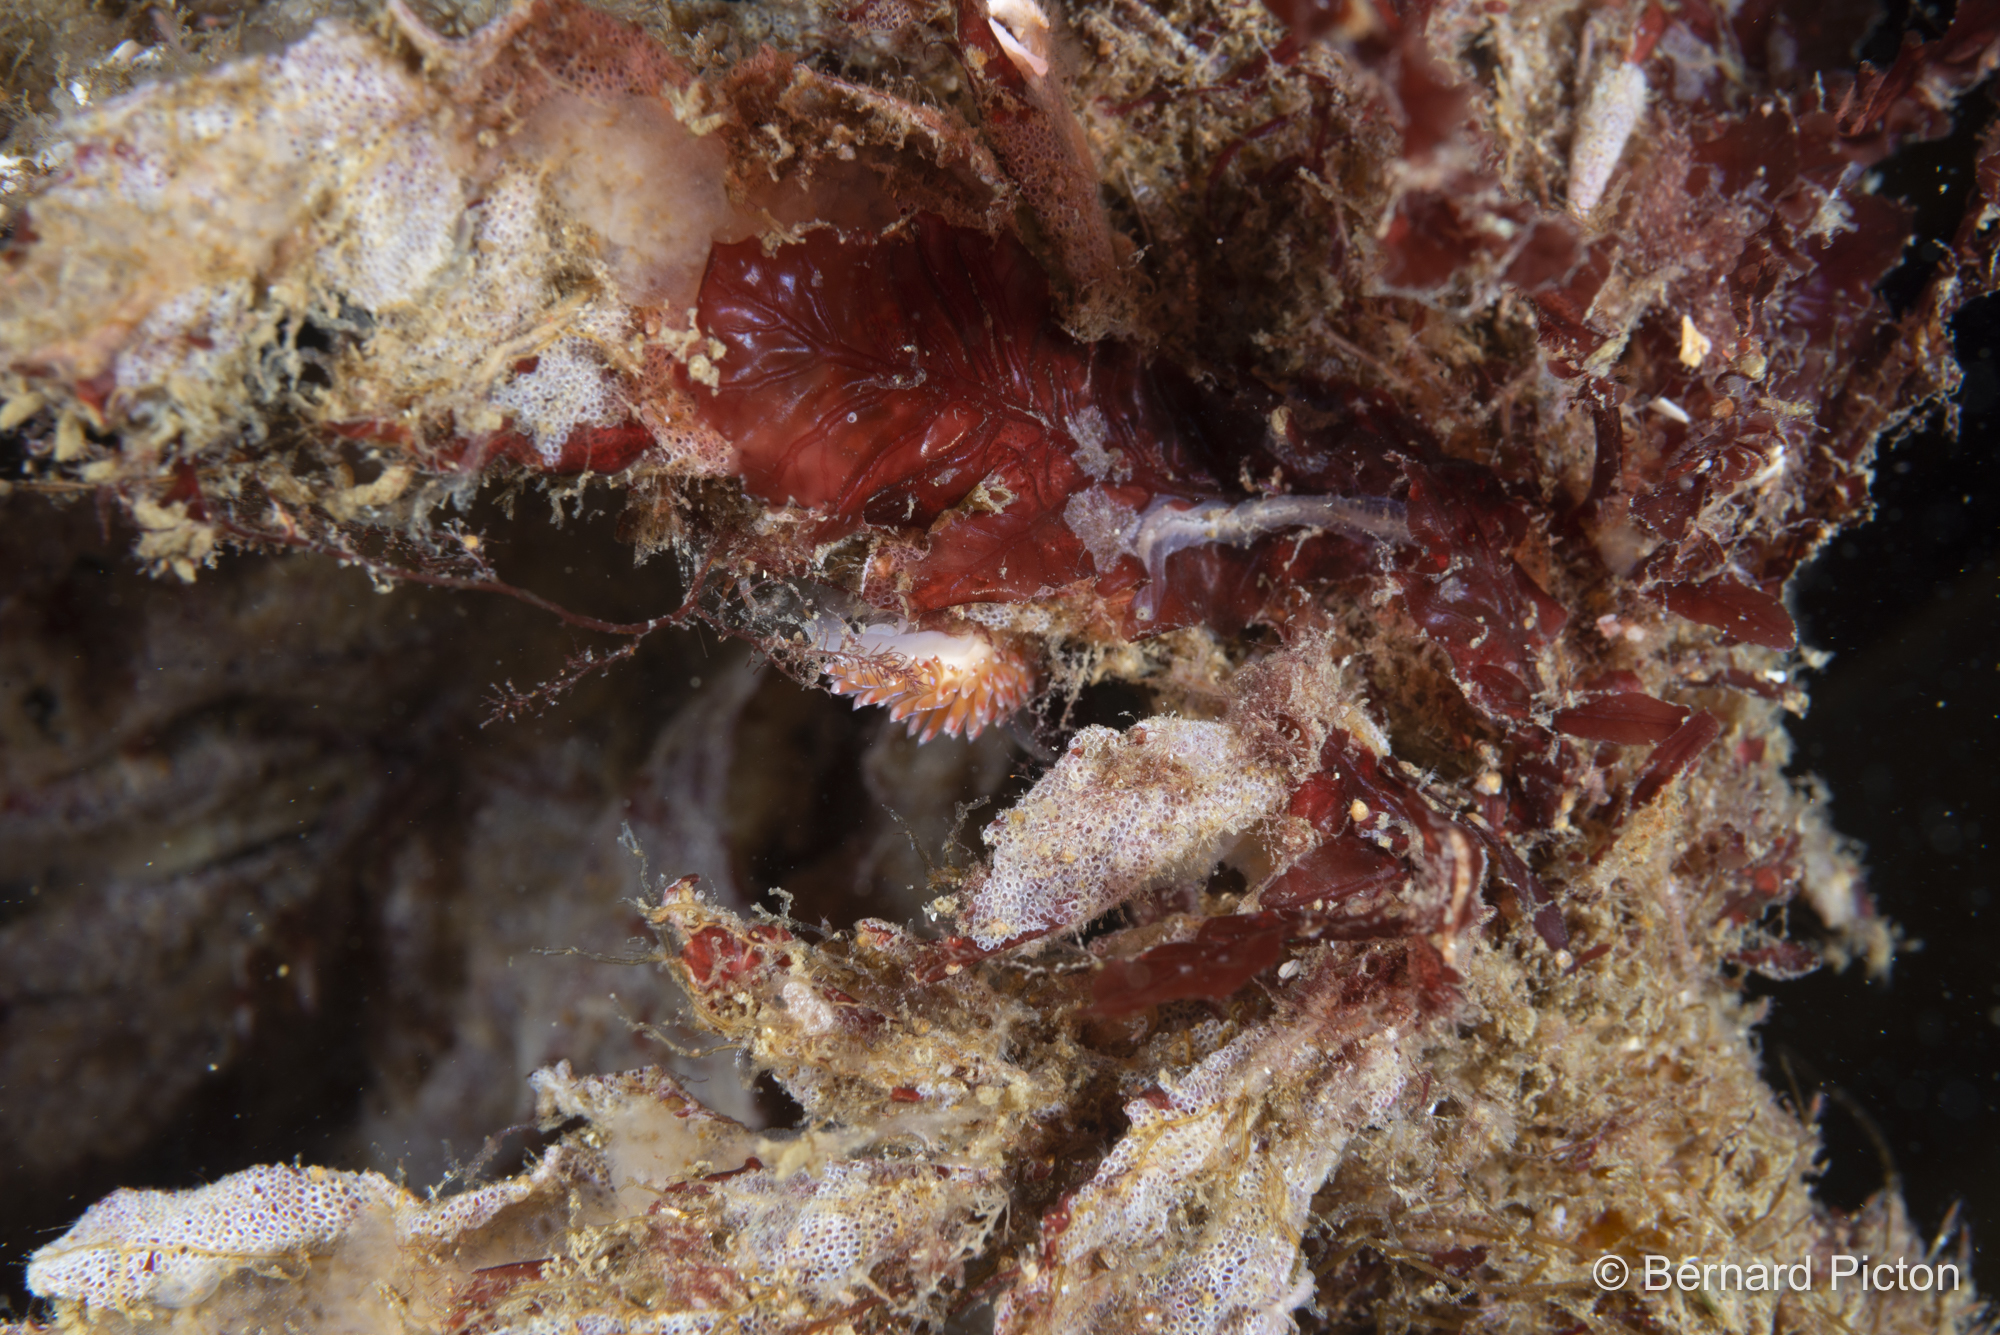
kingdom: Animalia
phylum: Mollusca
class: Gastropoda
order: Nudibranchia
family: Facelinidae
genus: Facelina
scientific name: Facelina auriculata
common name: Slender facelina
